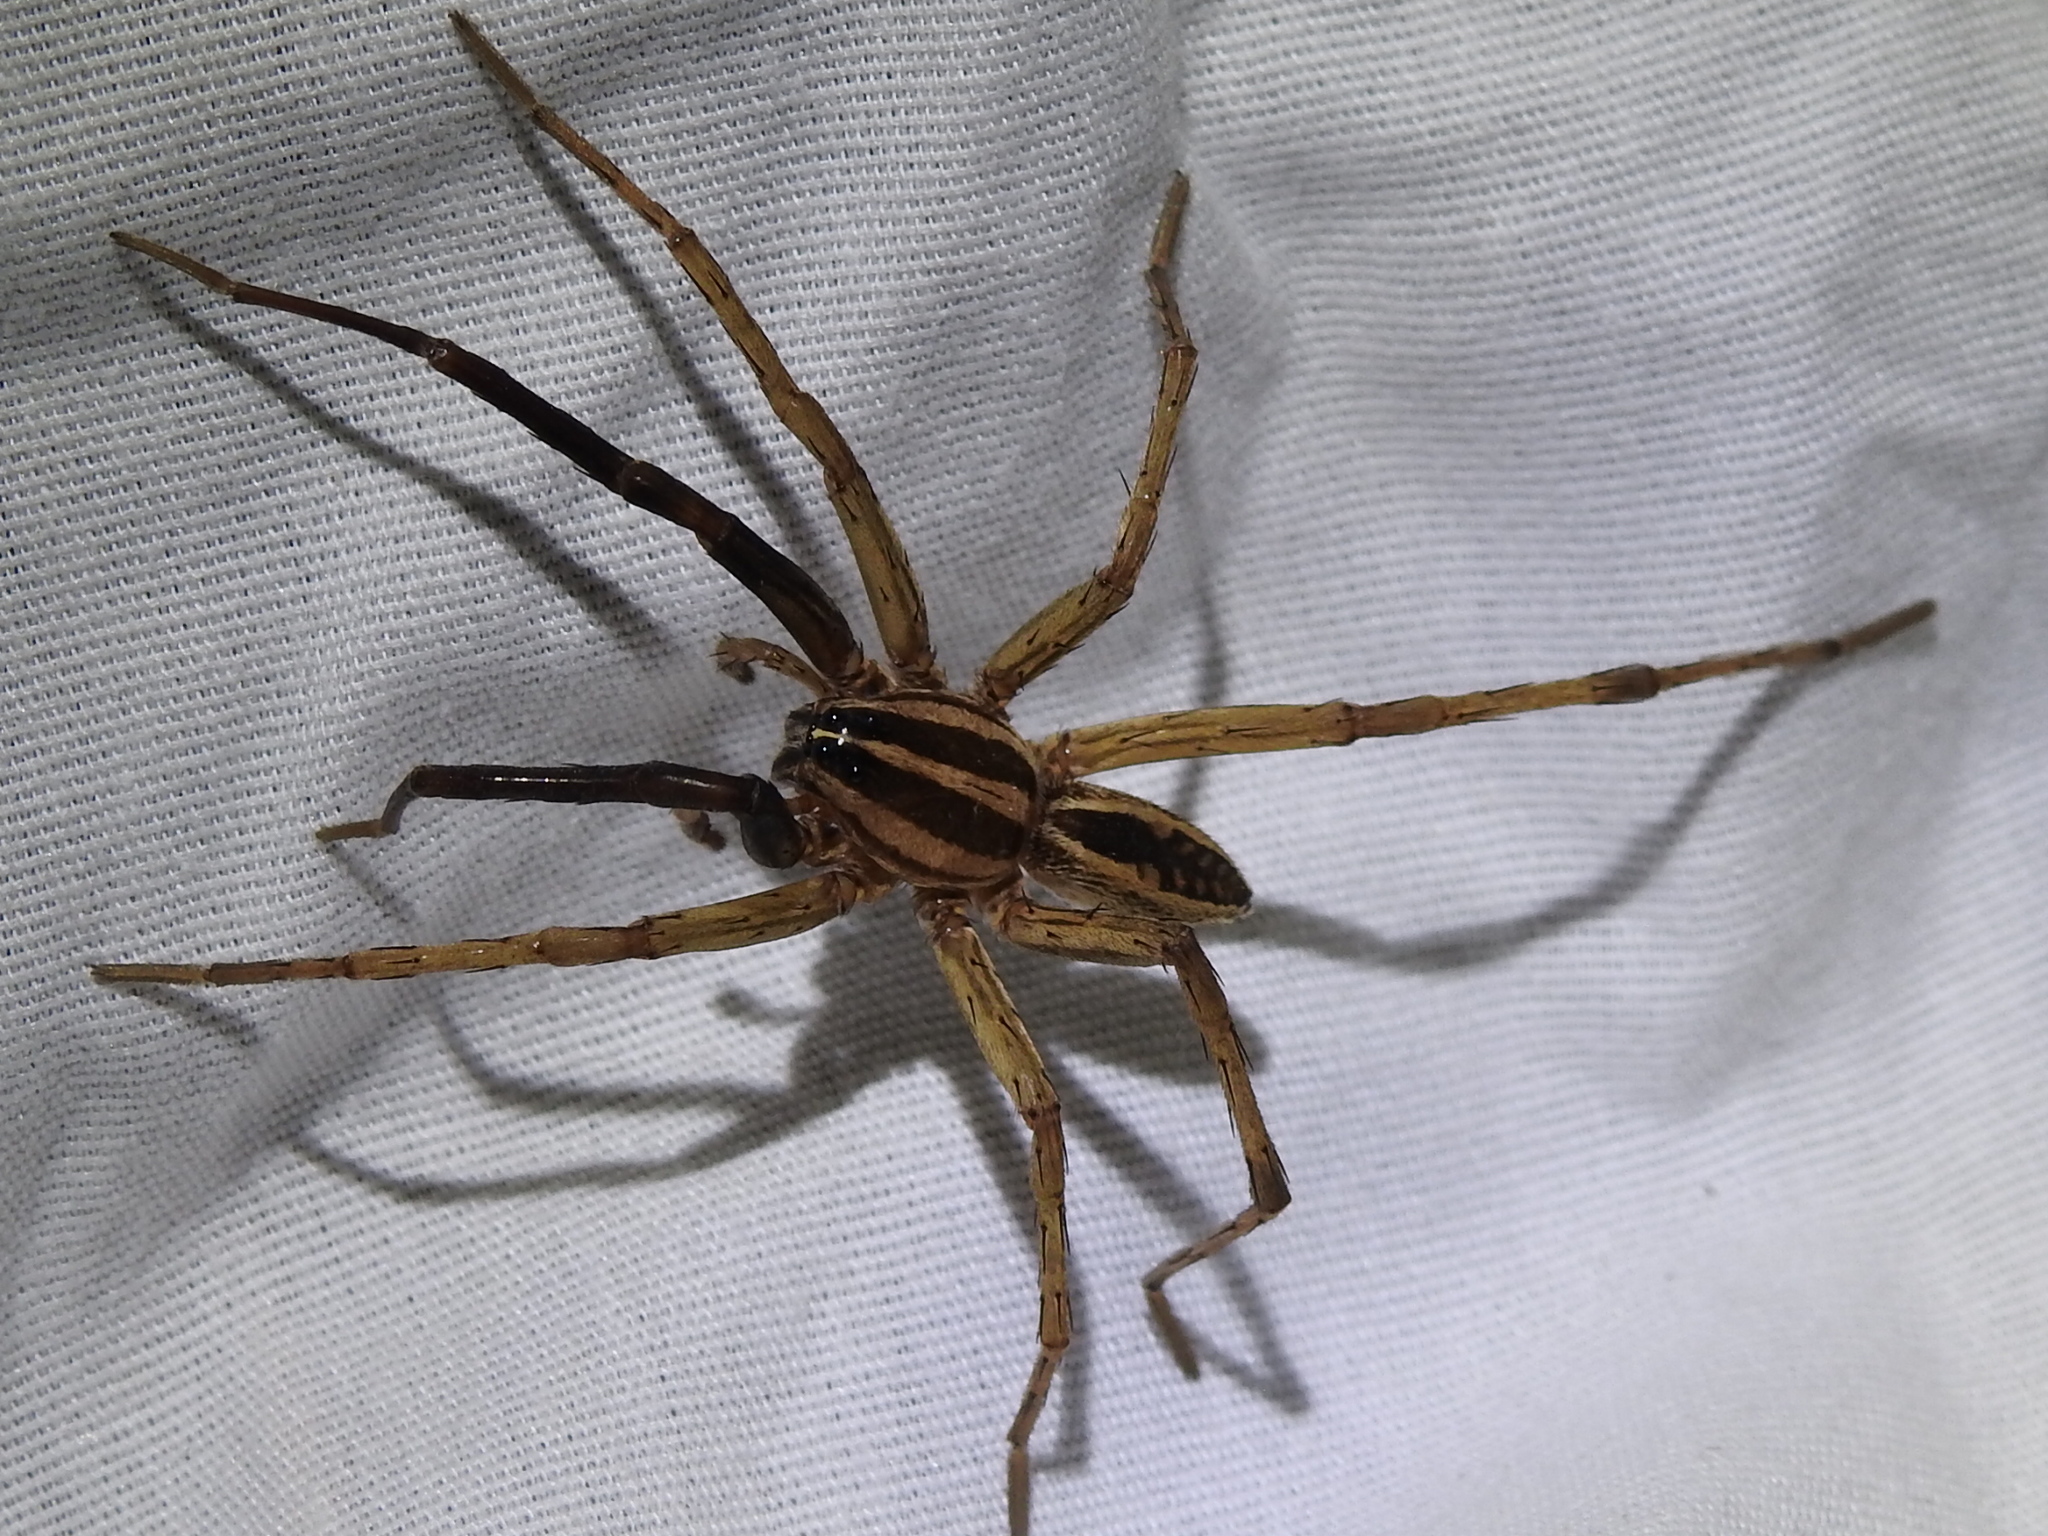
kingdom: Animalia
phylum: Arthropoda
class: Arachnida
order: Araneae
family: Lycosidae
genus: Rabidosa
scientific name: Rabidosa rabida
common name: Rabid wolf spider
